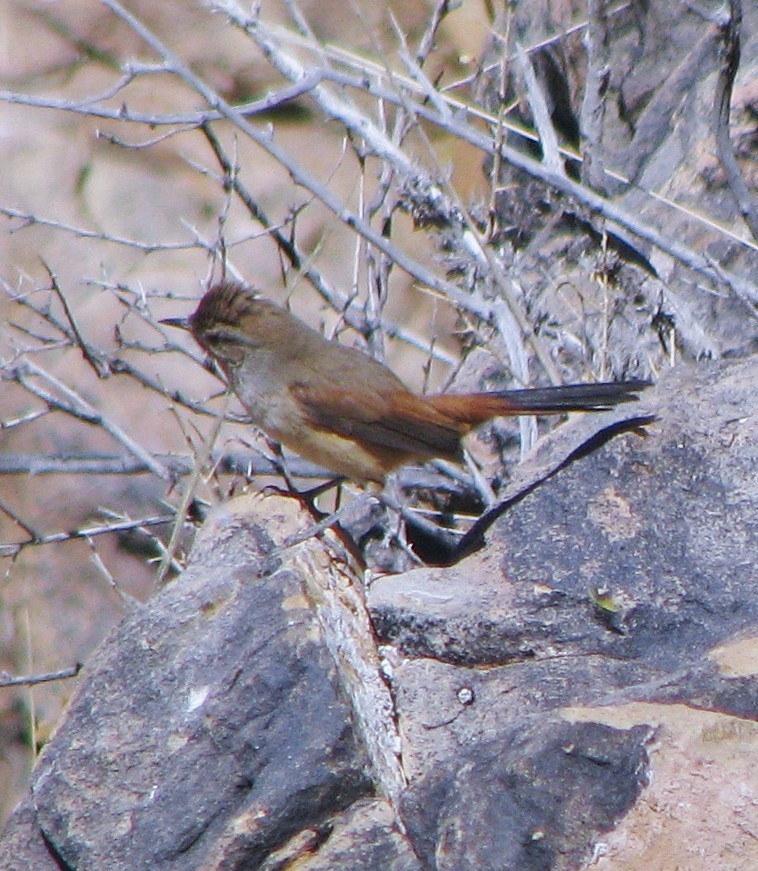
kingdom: Animalia
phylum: Chordata
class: Aves
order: Passeriformes
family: Furnariidae
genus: Asthenes
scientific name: Asthenes dorbignyi
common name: Rusty-vented canastero
